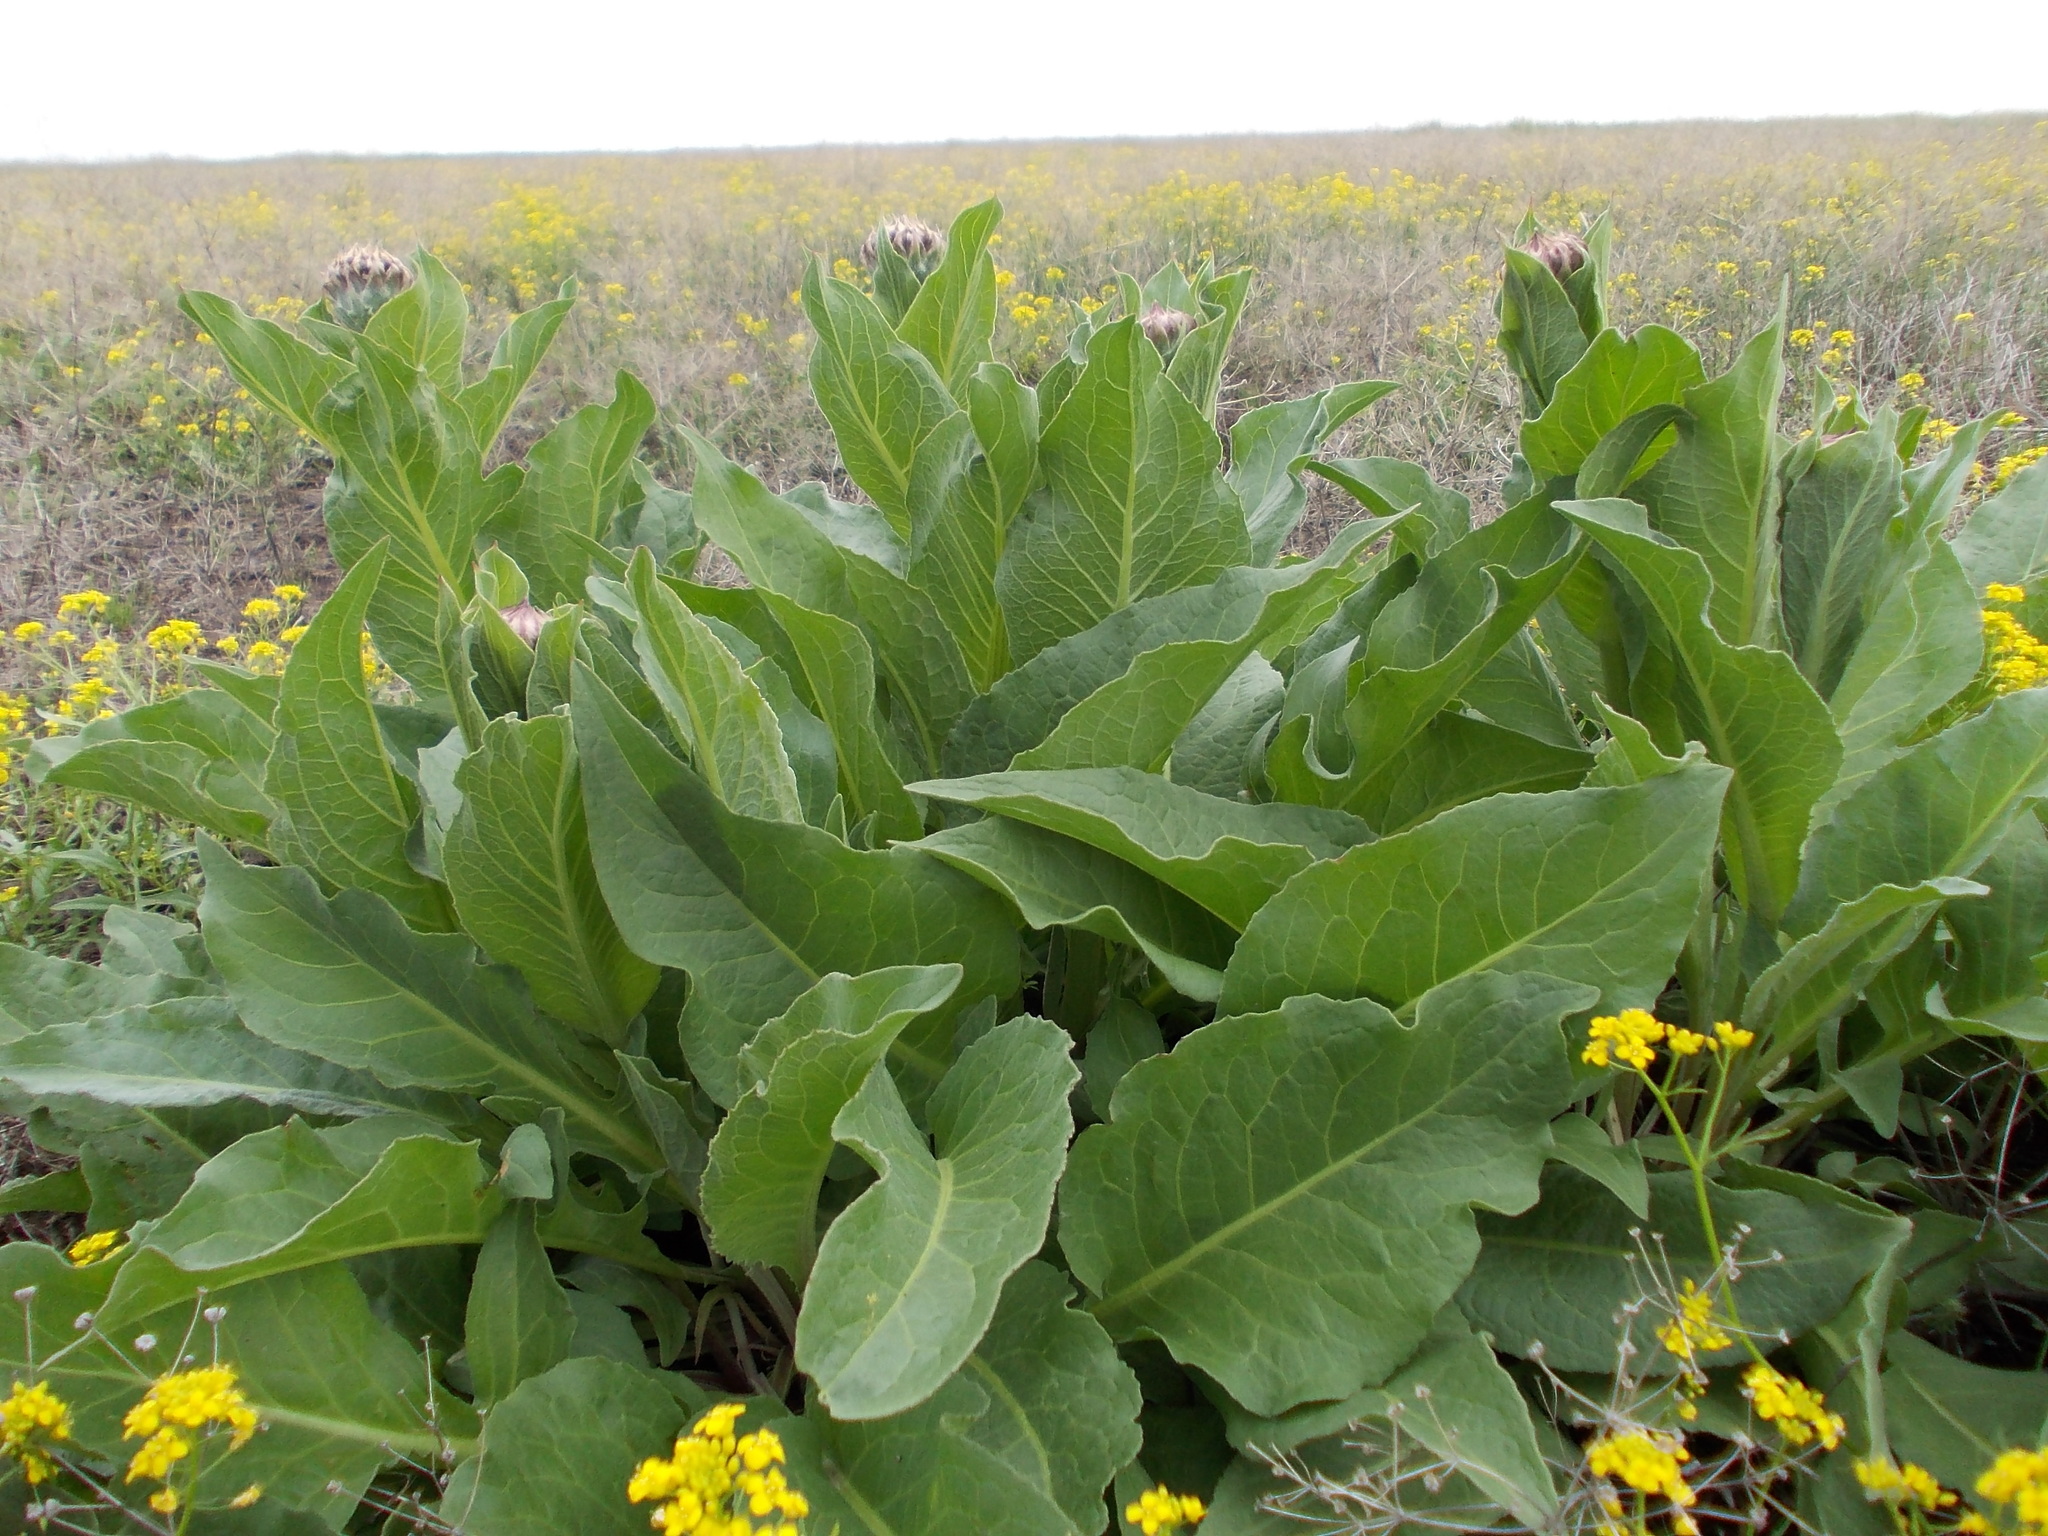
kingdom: Plantae
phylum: Tracheophyta
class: Magnoliopsida
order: Asterales
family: Asteraceae
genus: Leuzea
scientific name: Leuzea carthamoides
